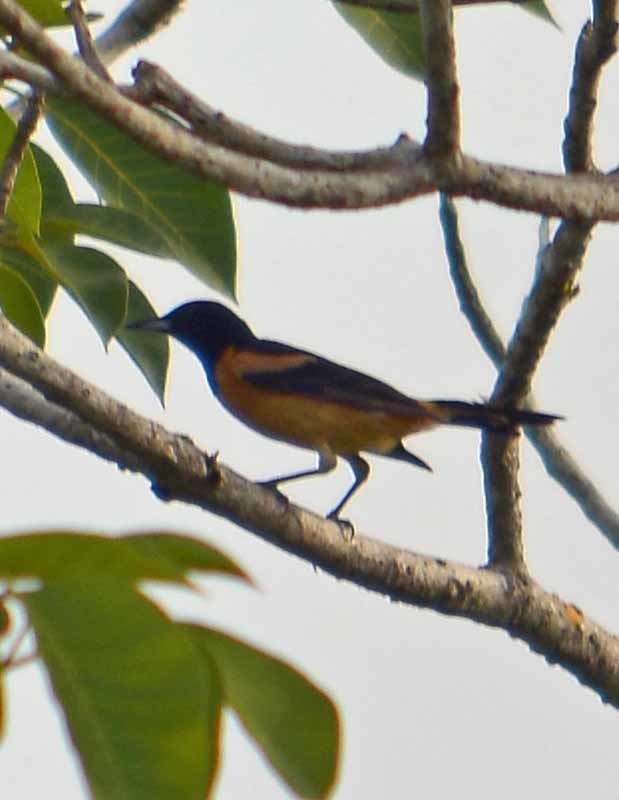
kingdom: Animalia
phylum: Chordata
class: Aves
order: Passeriformes
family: Icteridae
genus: Icterus
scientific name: Icterus prosthemelas
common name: Black-cowled oriole
